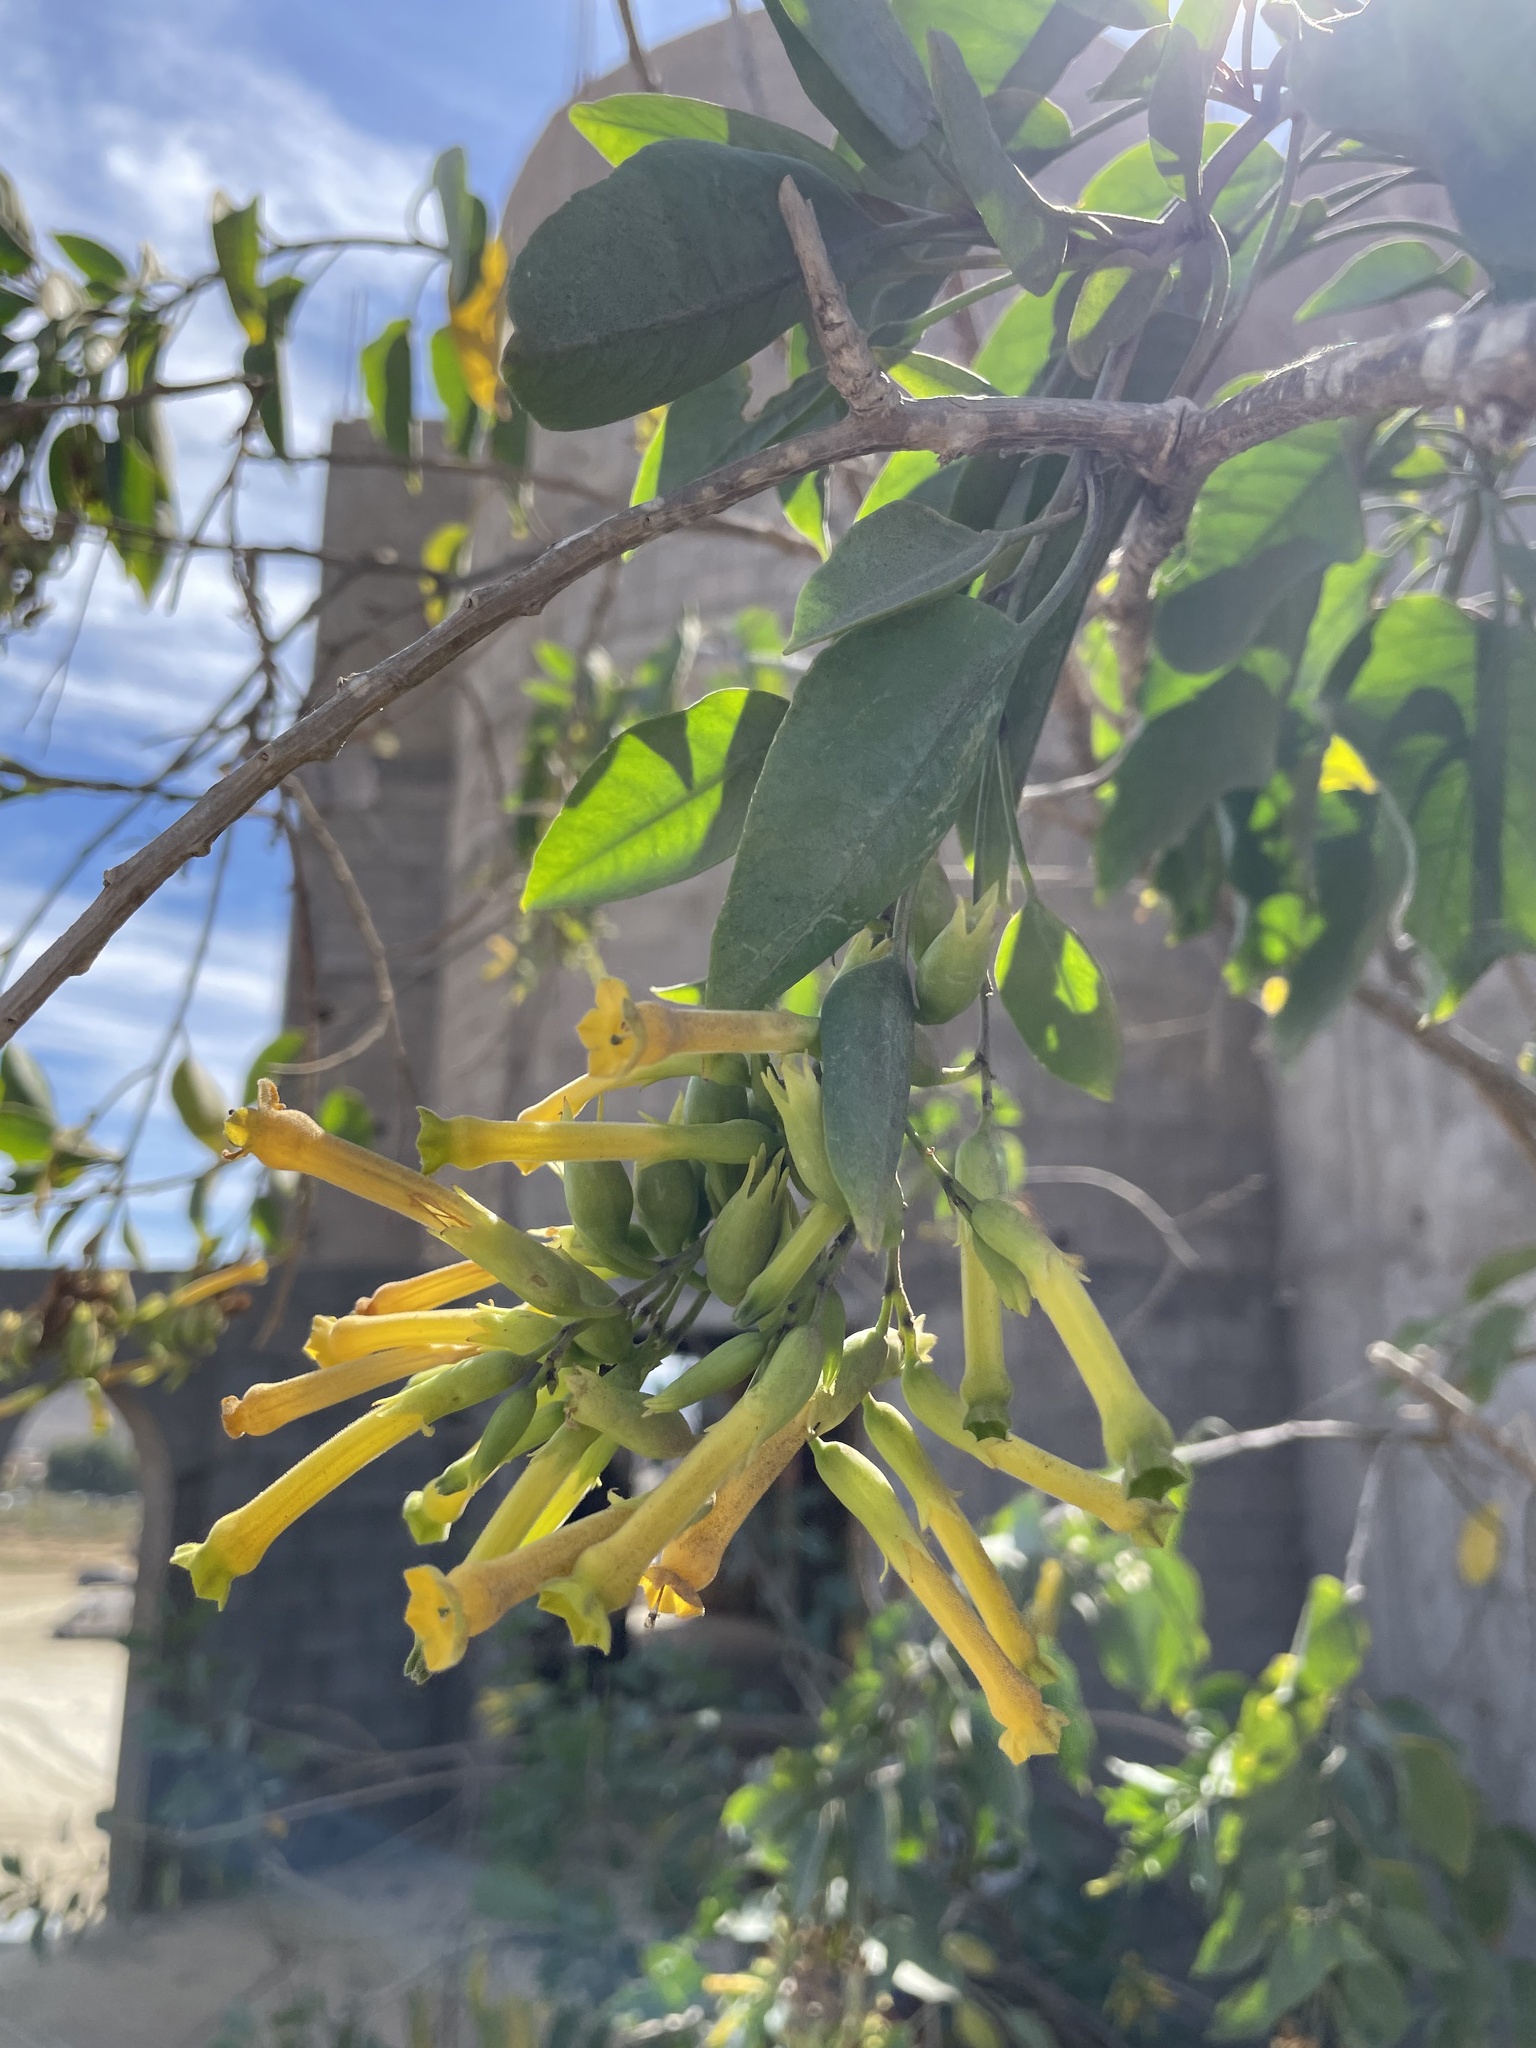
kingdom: Plantae
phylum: Tracheophyta
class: Magnoliopsida
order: Solanales
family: Solanaceae
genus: Nicotiana
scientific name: Nicotiana glauca
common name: Tree tobacco
